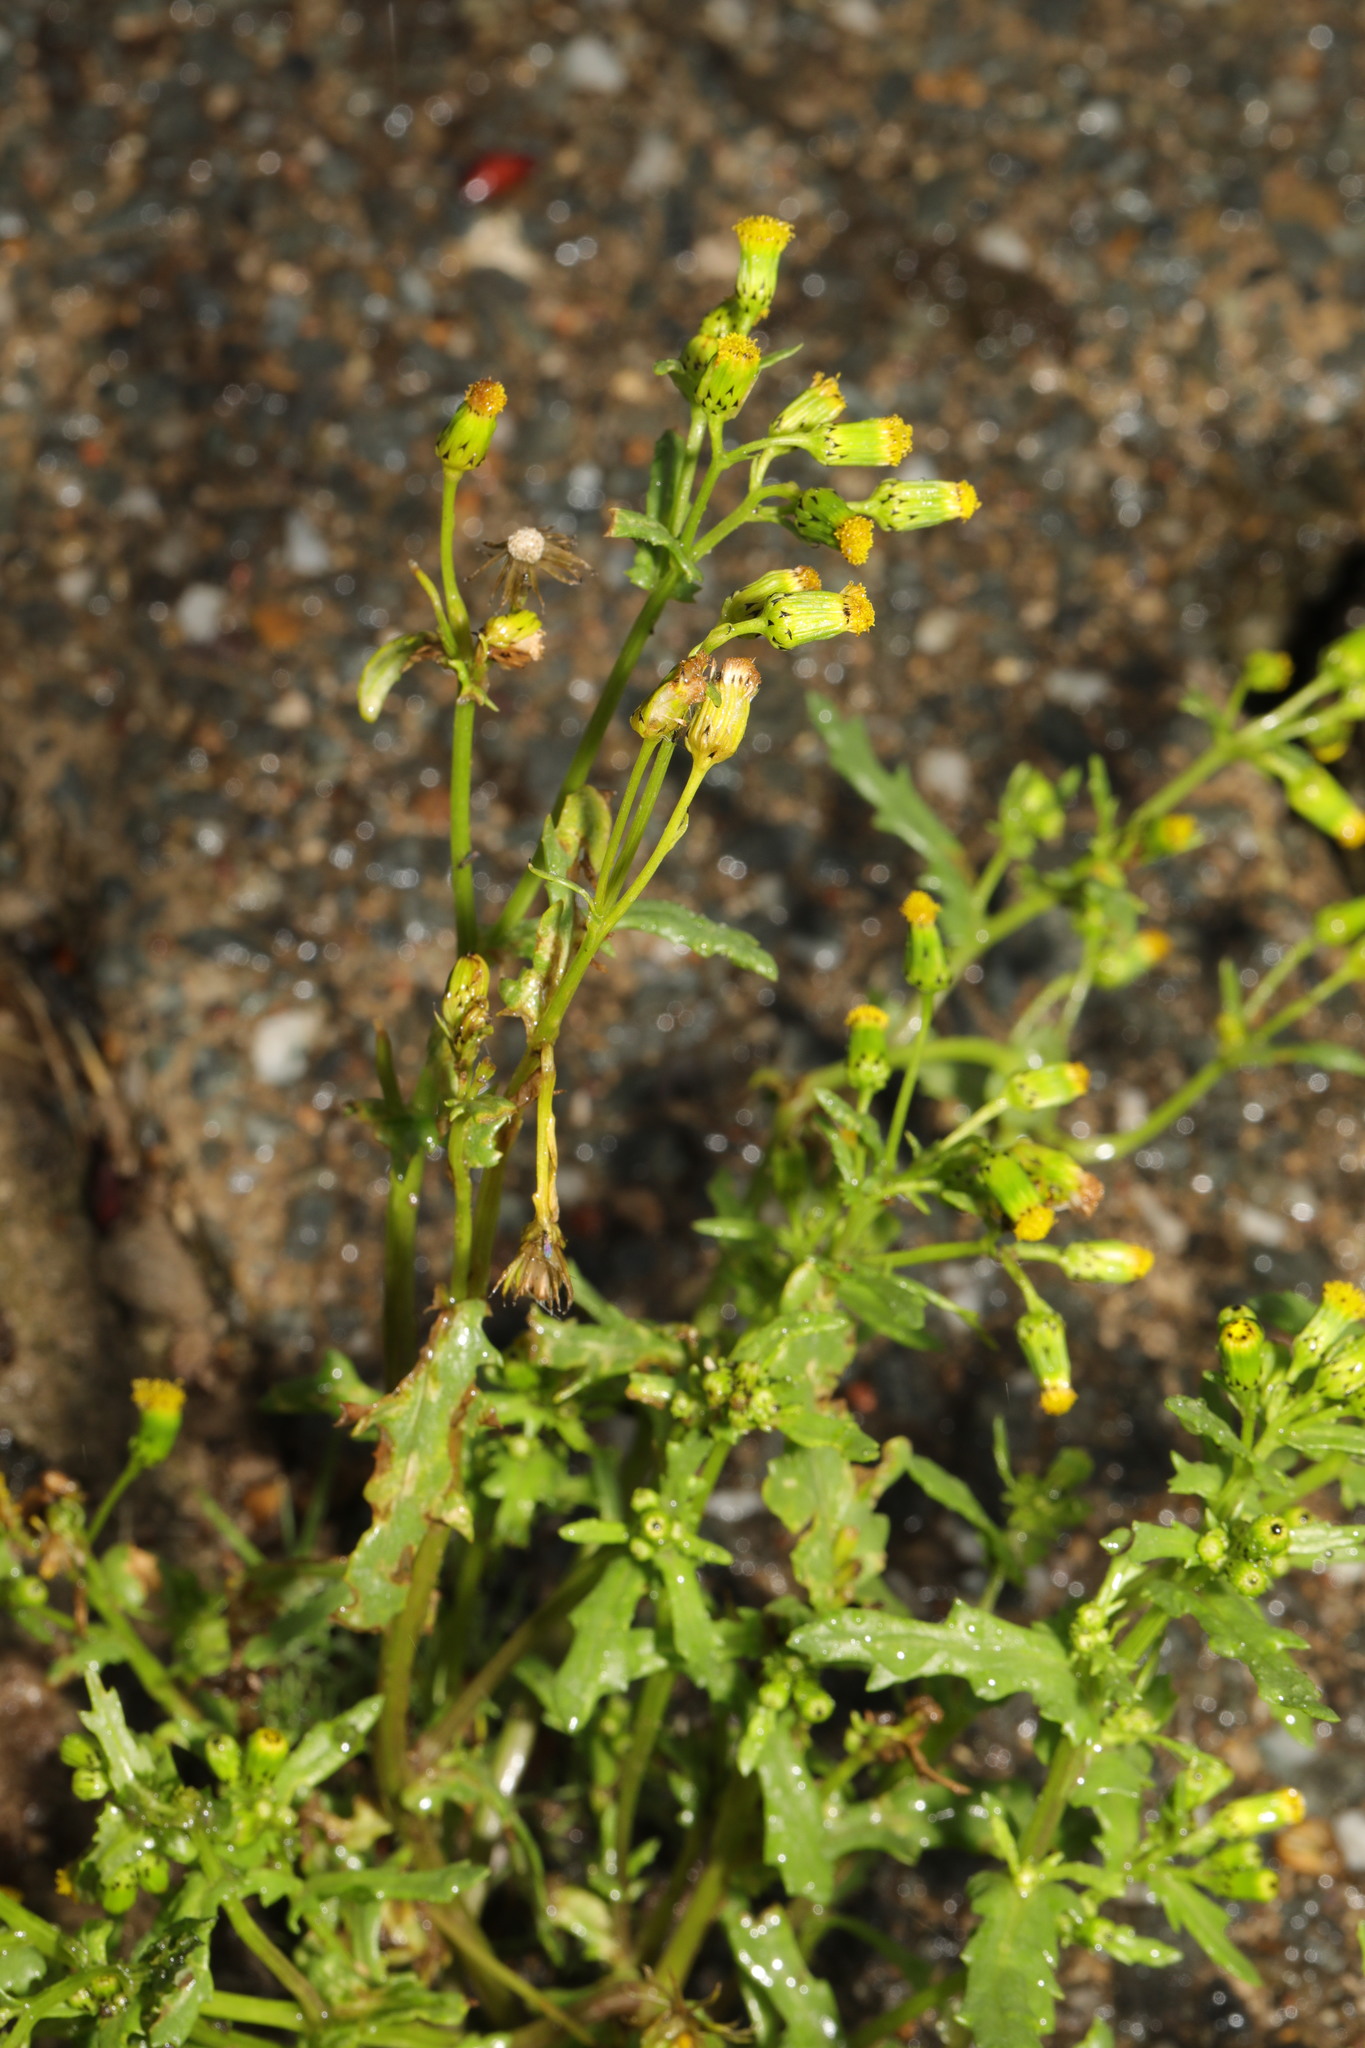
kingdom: Plantae
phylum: Tracheophyta
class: Magnoliopsida
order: Asterales
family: Asteraceae
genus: Senecio
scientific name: Senecio vulgaris
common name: Old-man-in-the-spring
